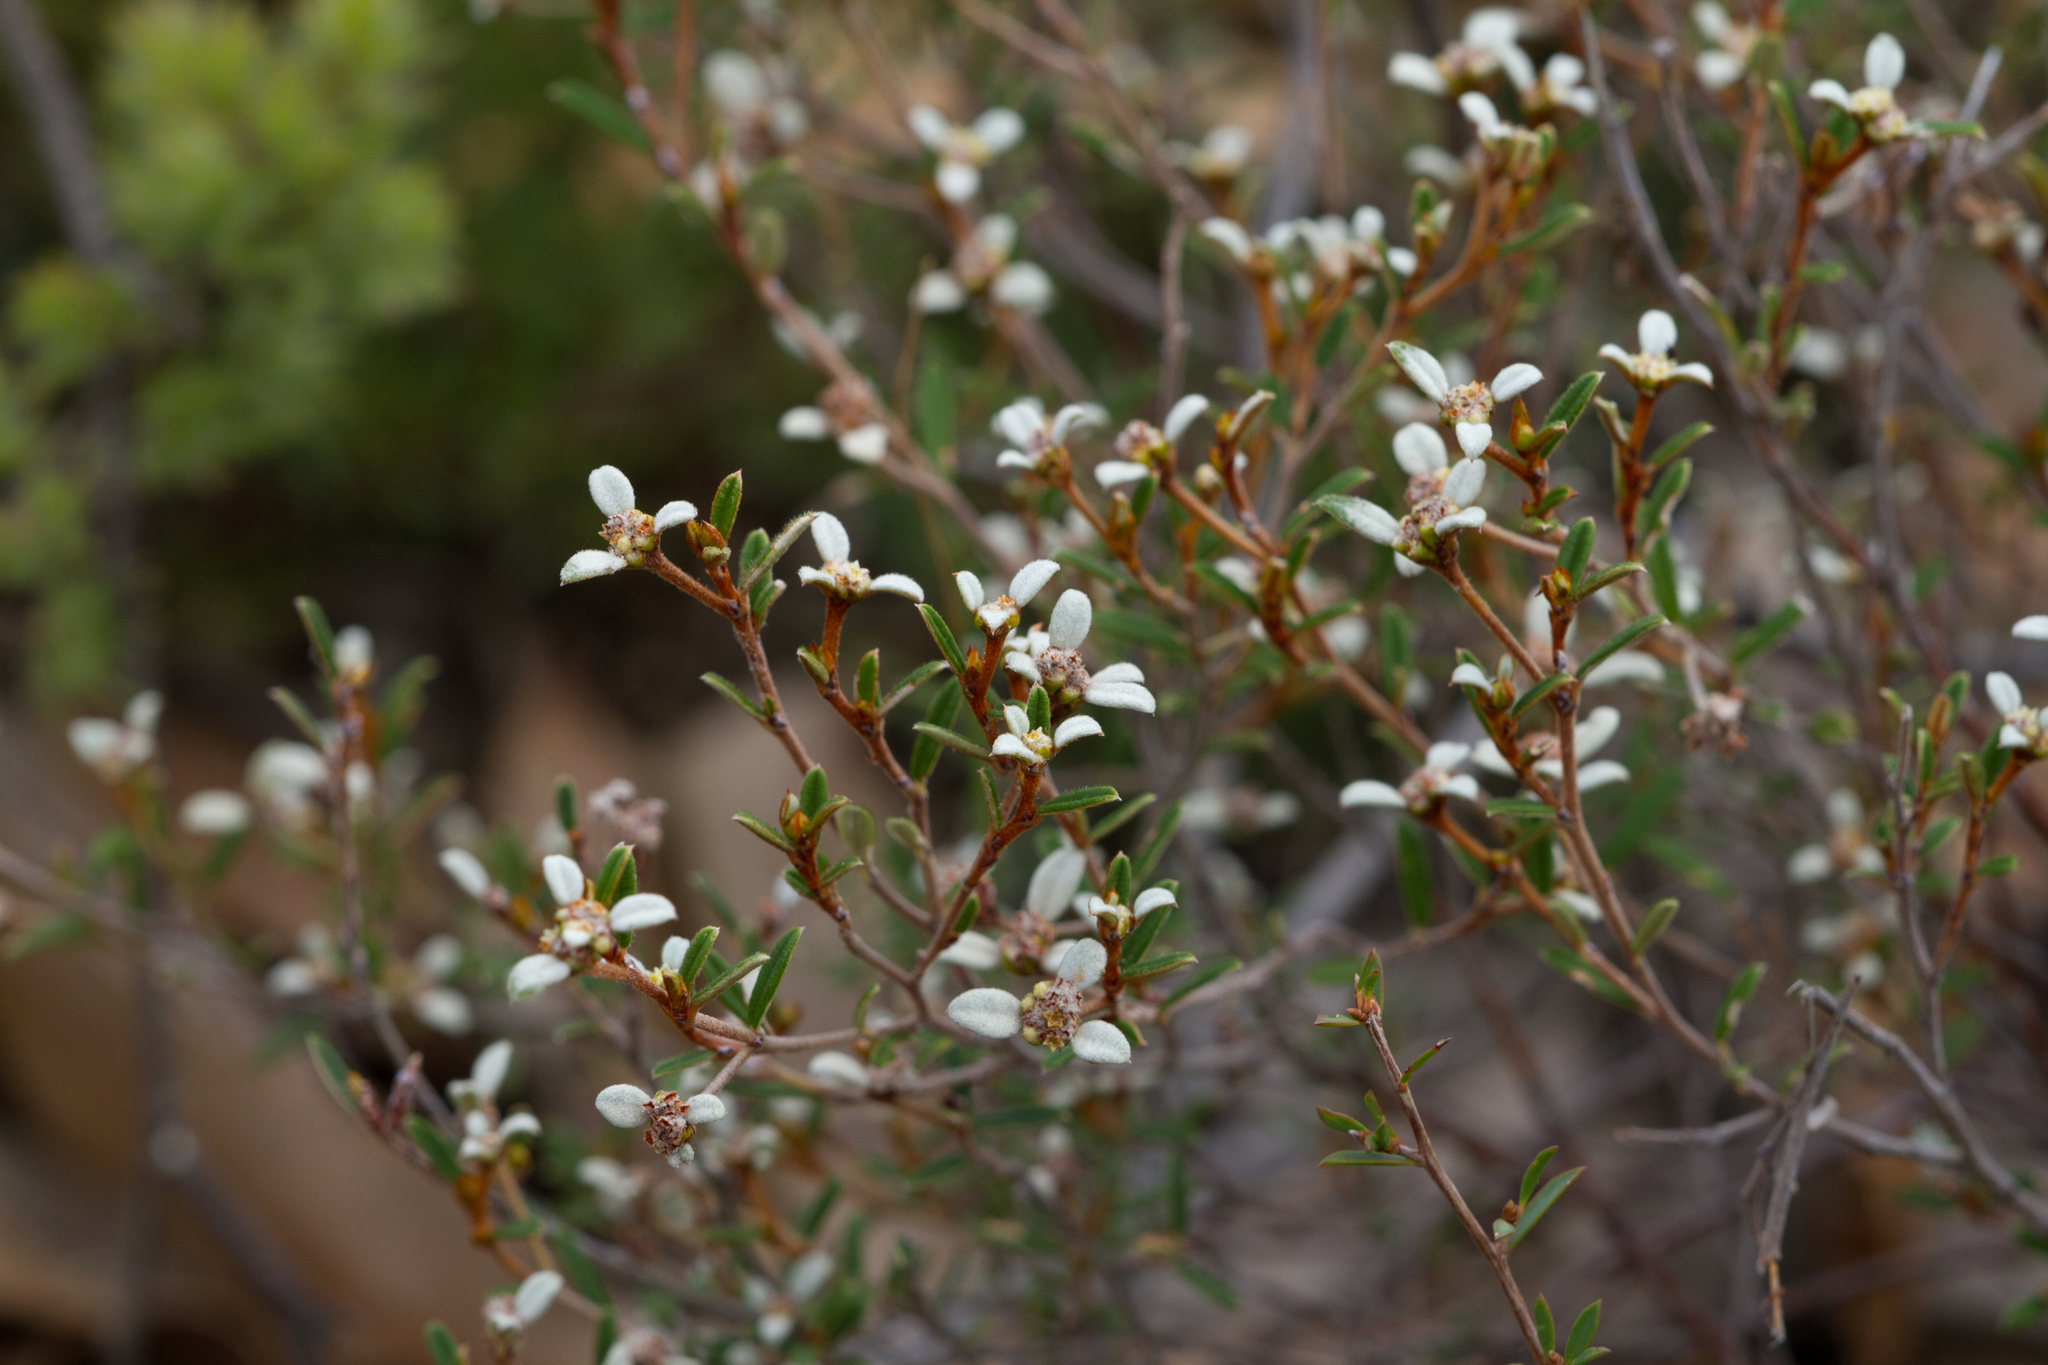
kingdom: Plantae
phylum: Tracheophyta
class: Magnoliopsida
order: Rosales
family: Rhamnaceae
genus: Spyridium
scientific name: Spyridium vexilliferum
